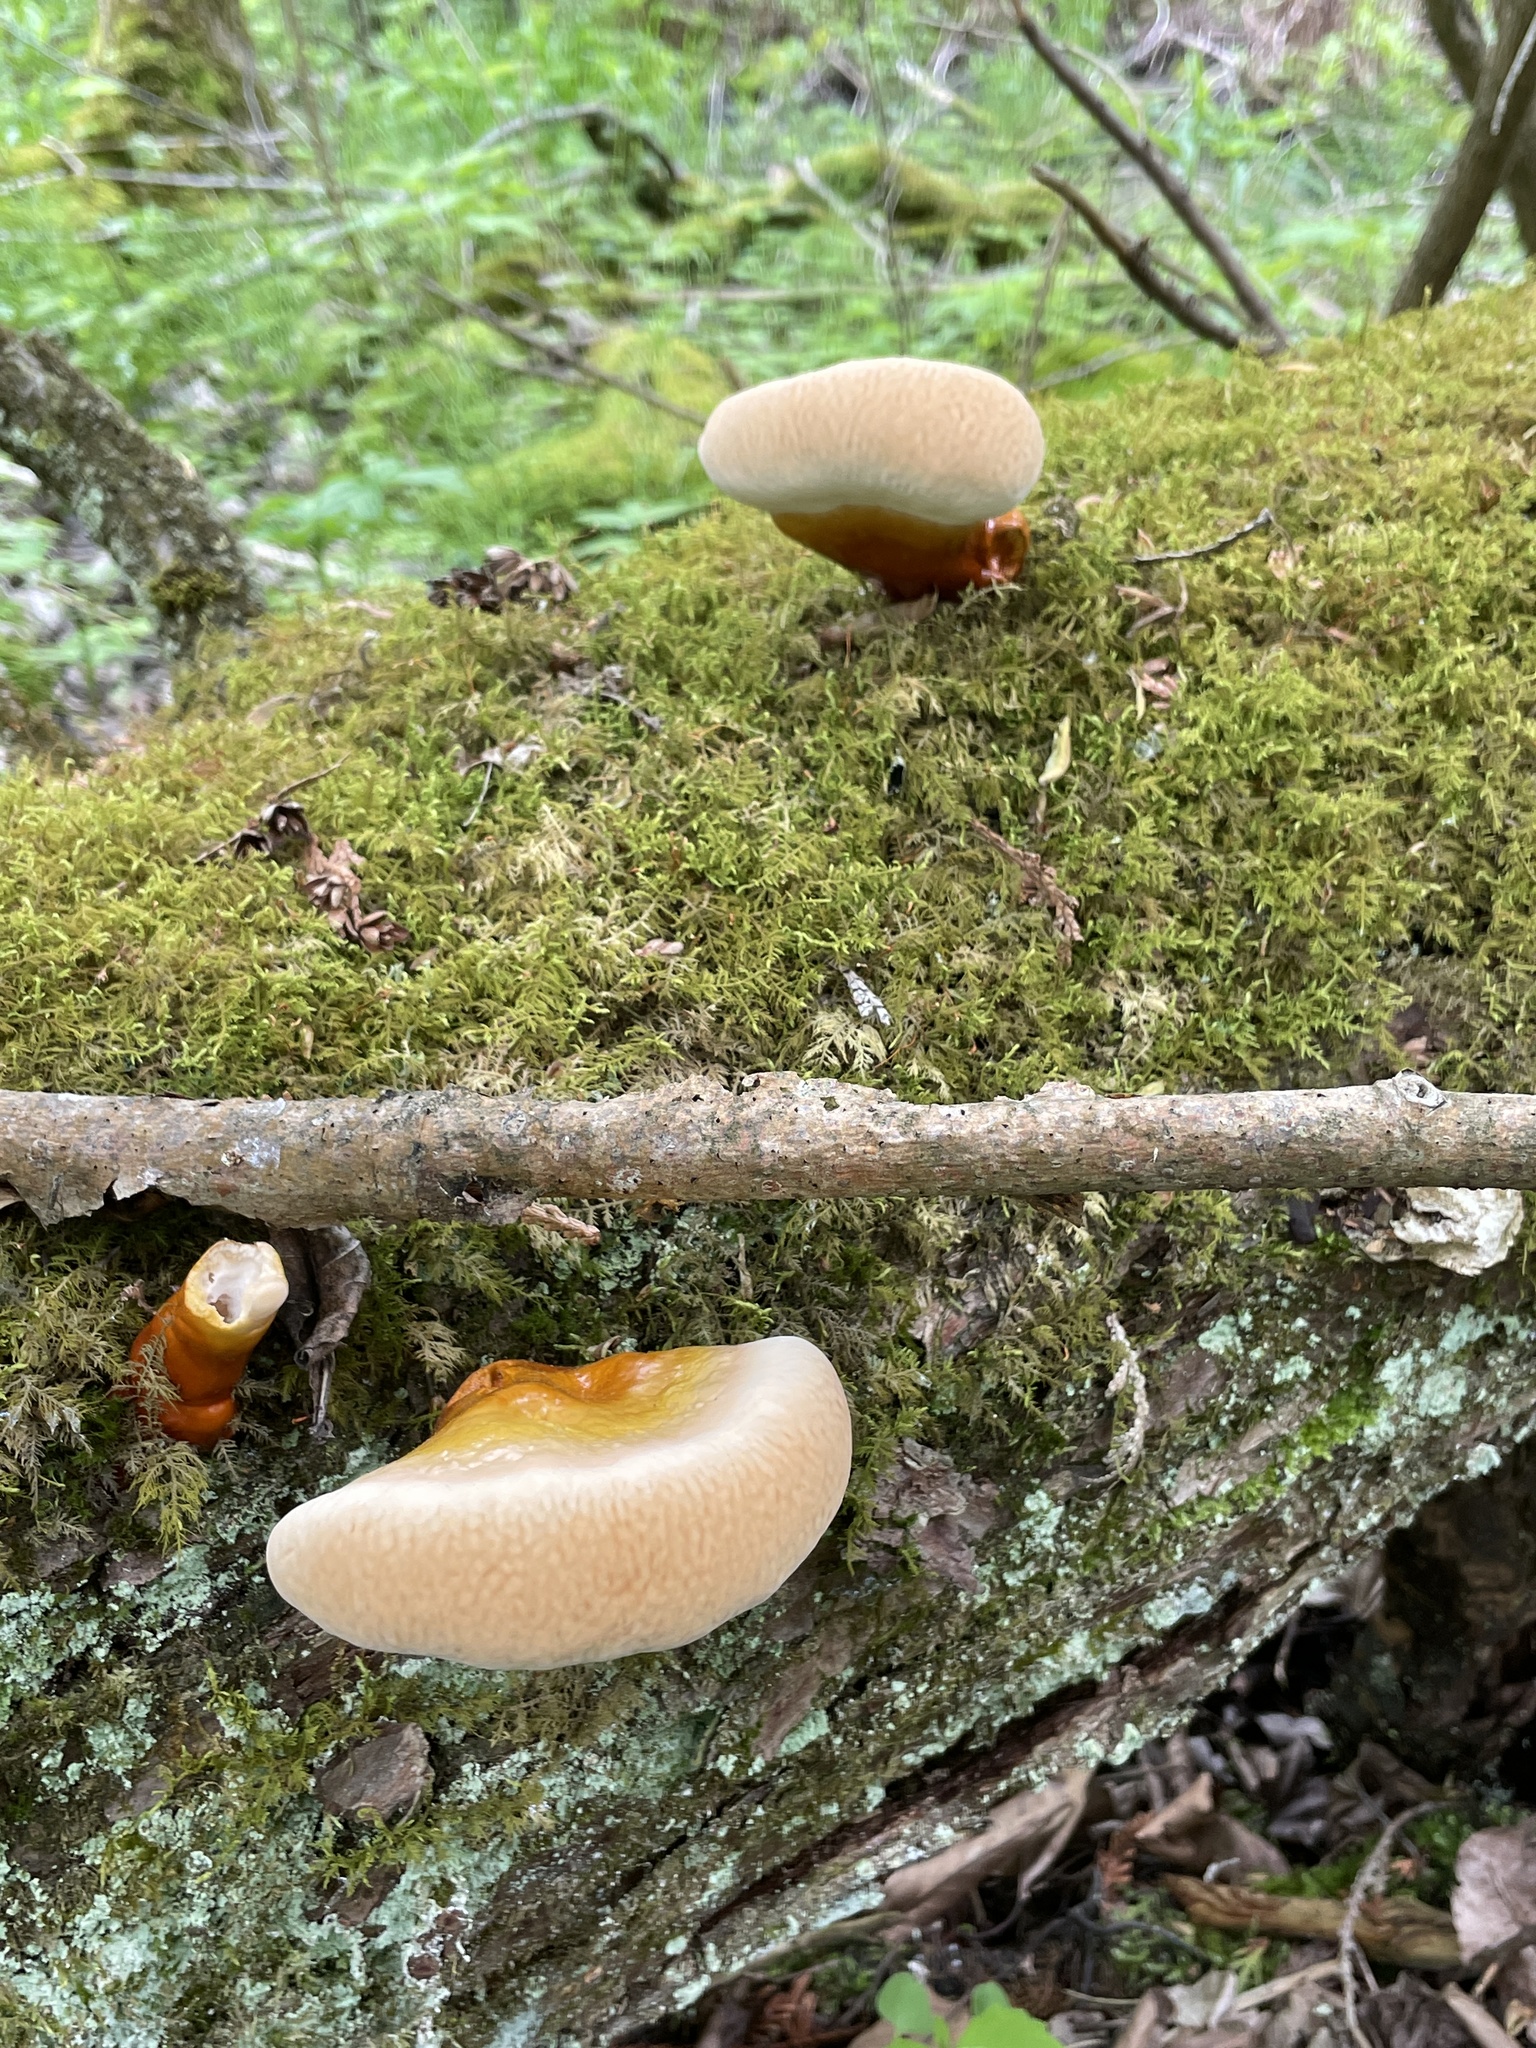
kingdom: Fungi
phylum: Basidiomycota
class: Agaricomycetes
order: Polyporales
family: Polyporaceae
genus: Ganoderma
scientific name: Ganoderma tsugae
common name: Hemlock varnish shelf
